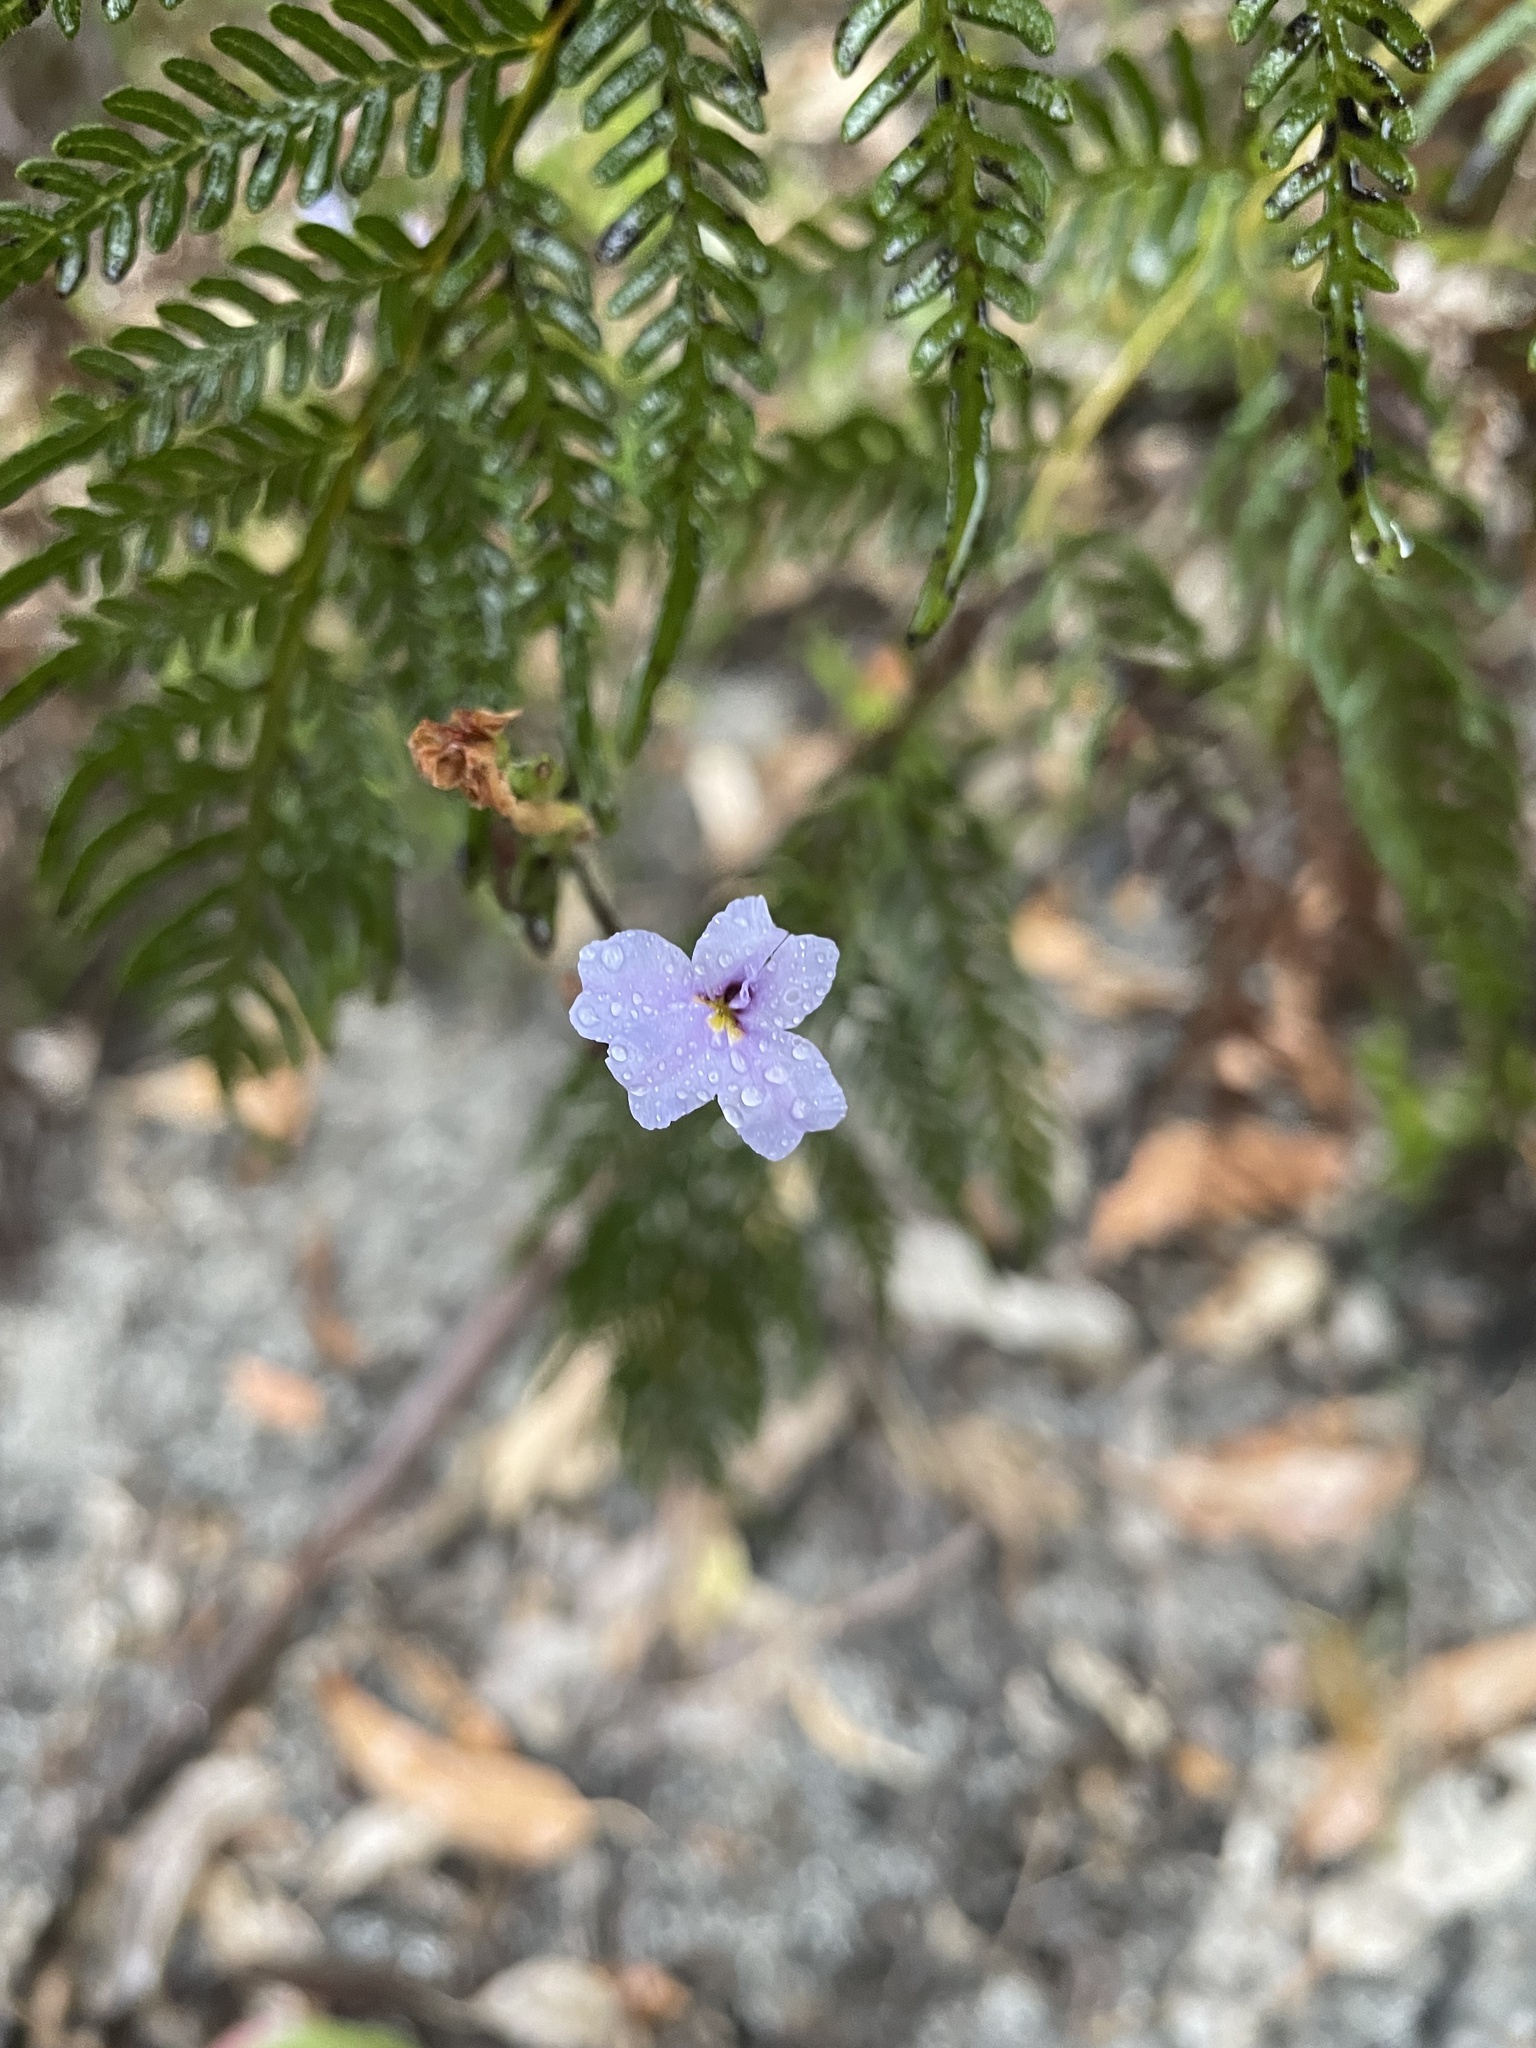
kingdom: Plantae
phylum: Tracheophyta
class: Magnoliopsida
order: Asterales
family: Goodeniaceae
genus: Dampiera
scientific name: Dampiera stricta
